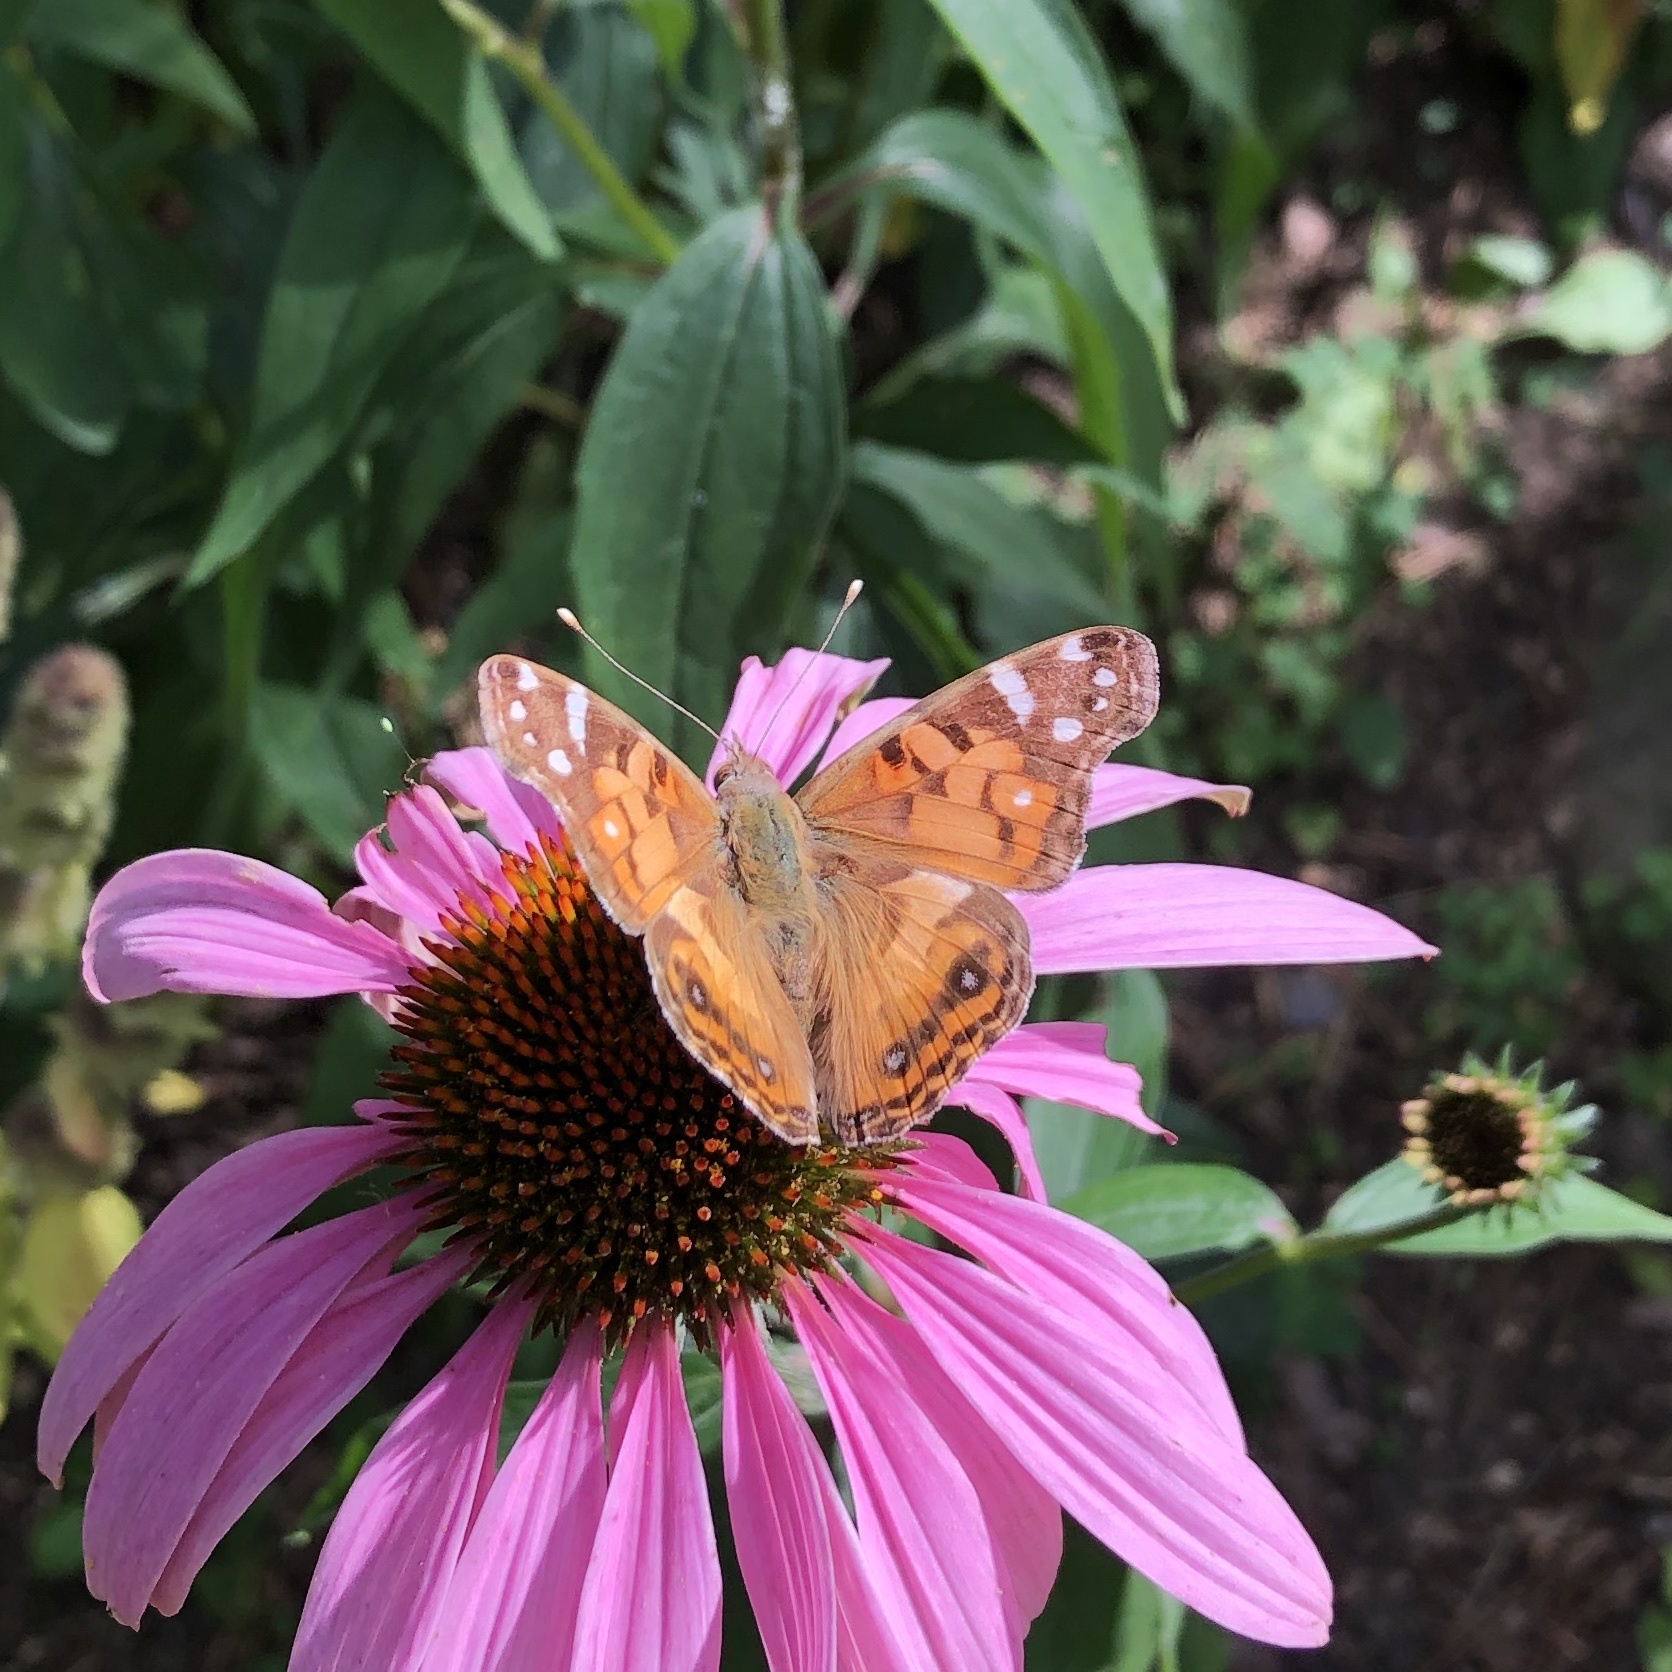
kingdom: Animalia
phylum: Arthropoda
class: Insecta
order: Lepidoptera
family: Nymphalidae
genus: Vanessa
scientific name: Vanessa virginiensis
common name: American lady
